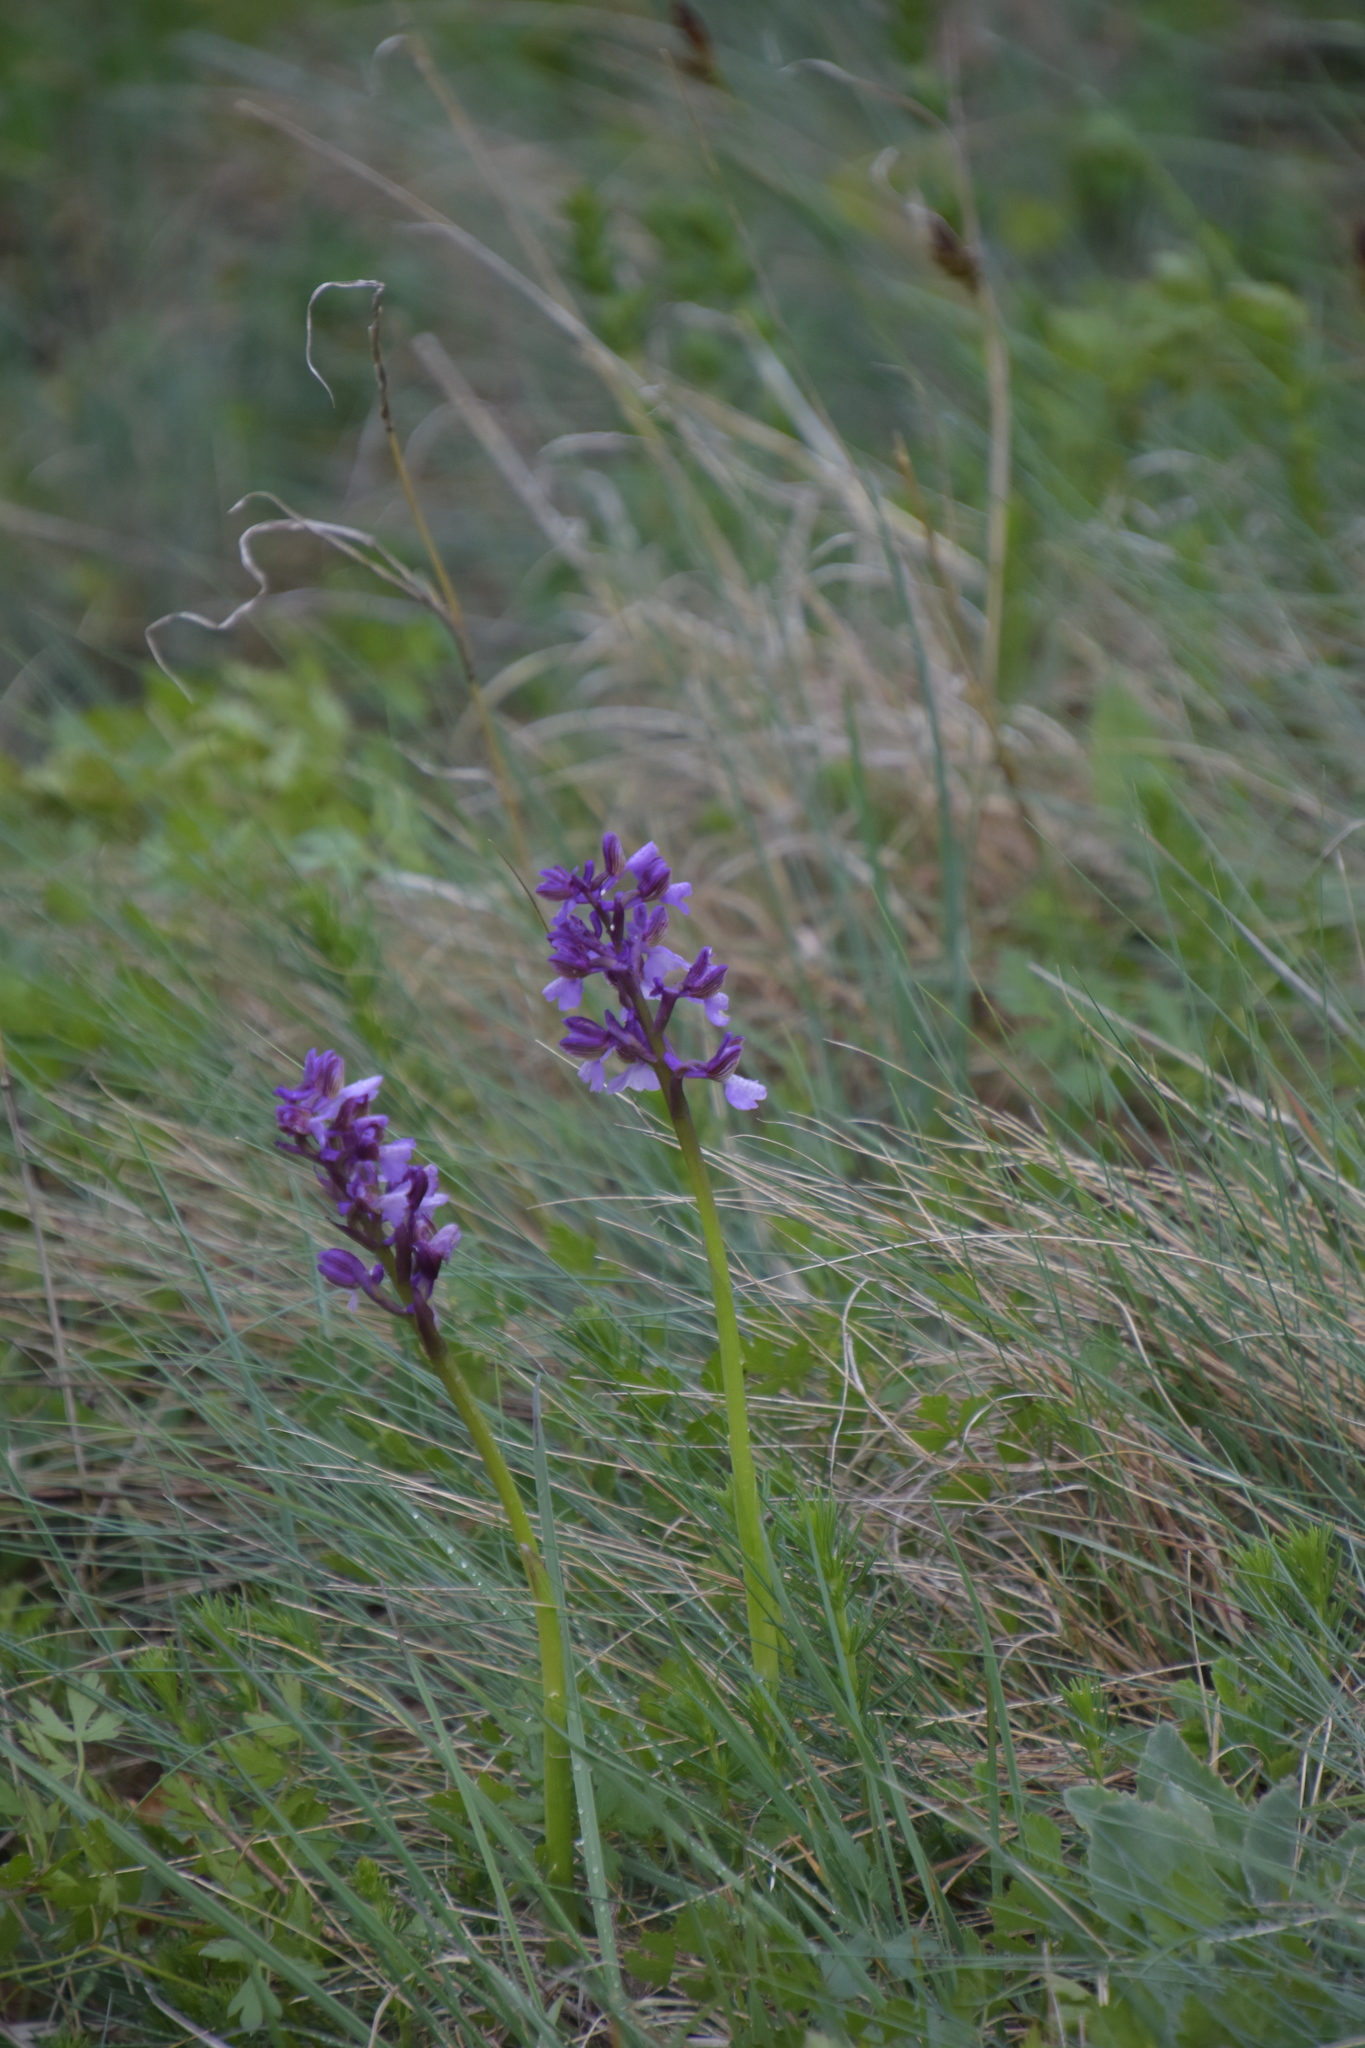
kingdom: Plantae
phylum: Tracheophyta
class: Liliopsida
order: Asparagales
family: Orchidaceae
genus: Anacamptis
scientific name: Anacamptis morio
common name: Green-winged orchid
